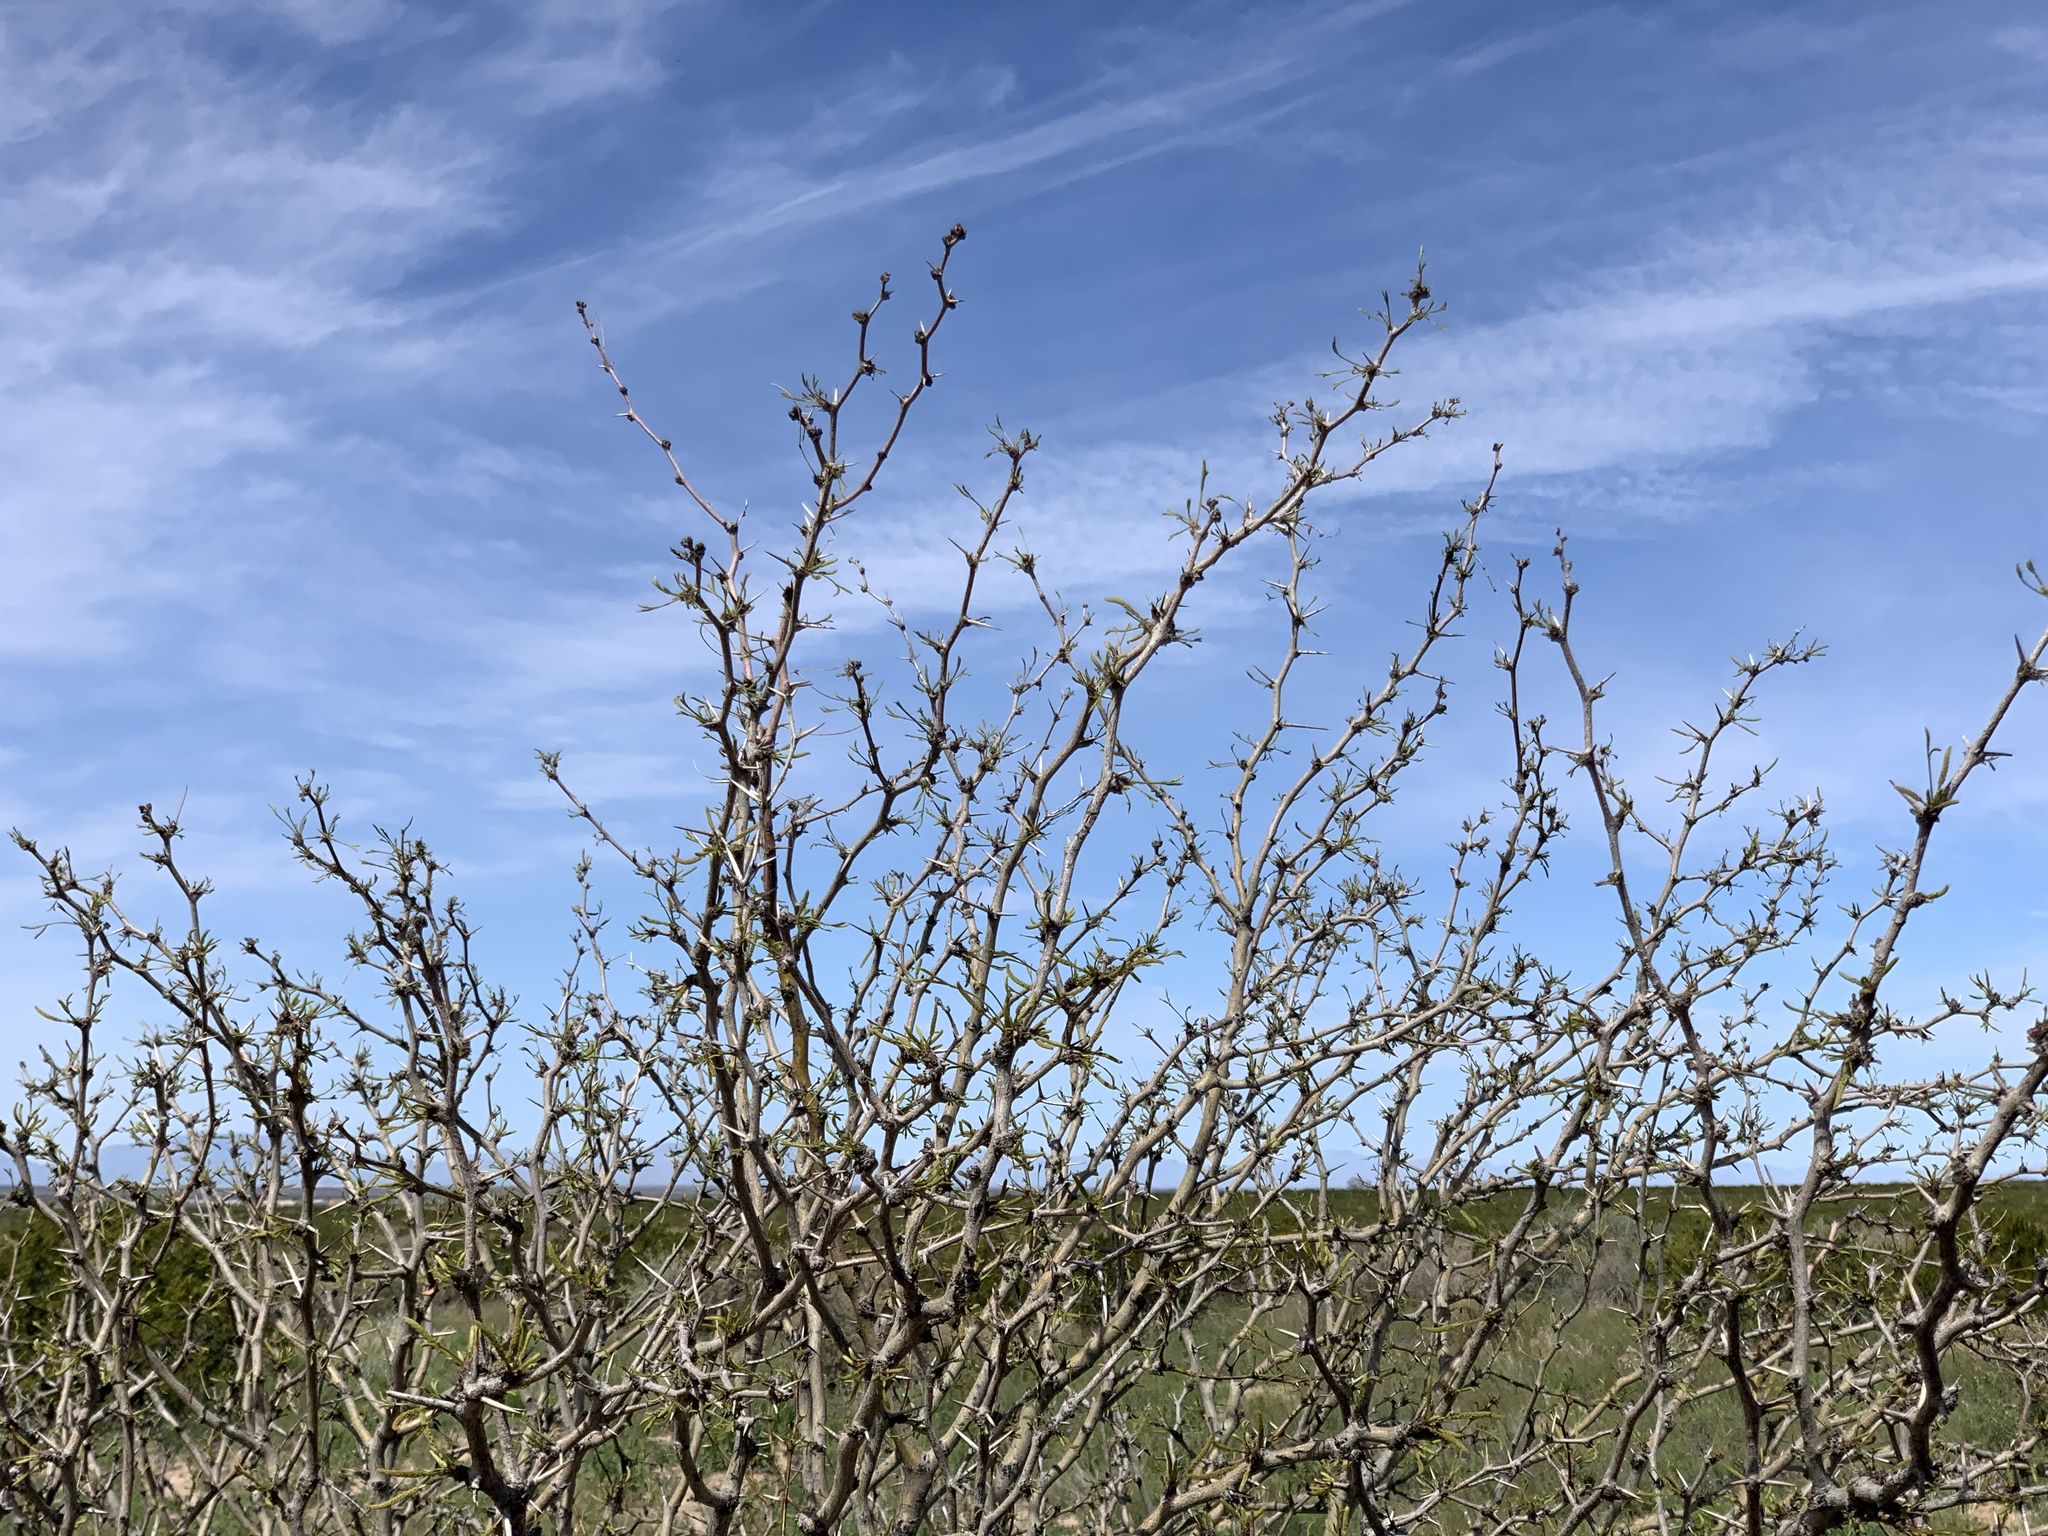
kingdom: Plantae
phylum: Tracheophyta
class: Magnoliopsida
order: Fabales
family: Fabaceae
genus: Prosopis
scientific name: Prosopis glandulosa
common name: Honey mesquite
